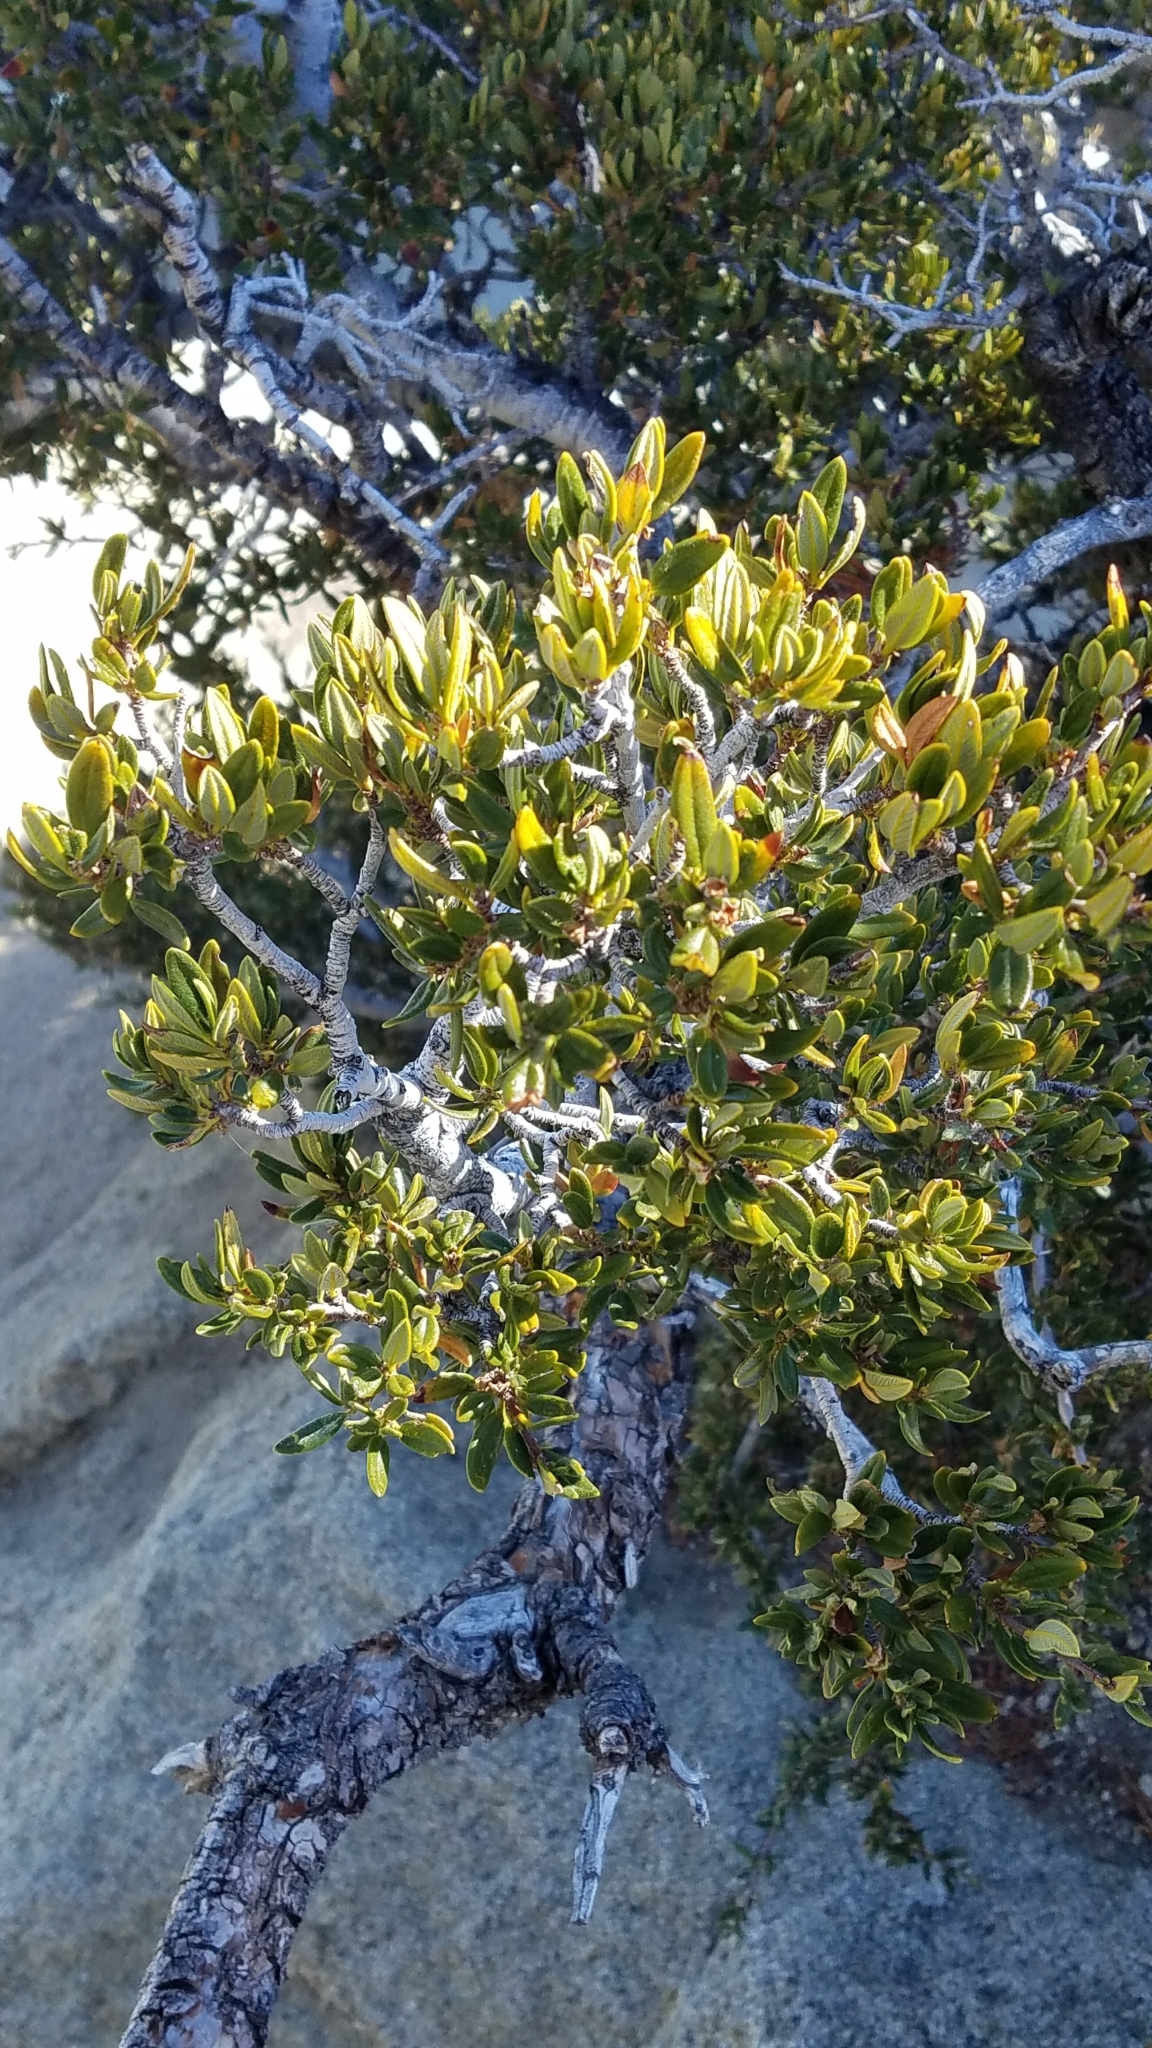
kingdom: Plantae
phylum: Tracheophyta
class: Magnoliopsida
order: Rosales
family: Rosaceae
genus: Cercocarpus
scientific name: Cercocarpus ledifolius
